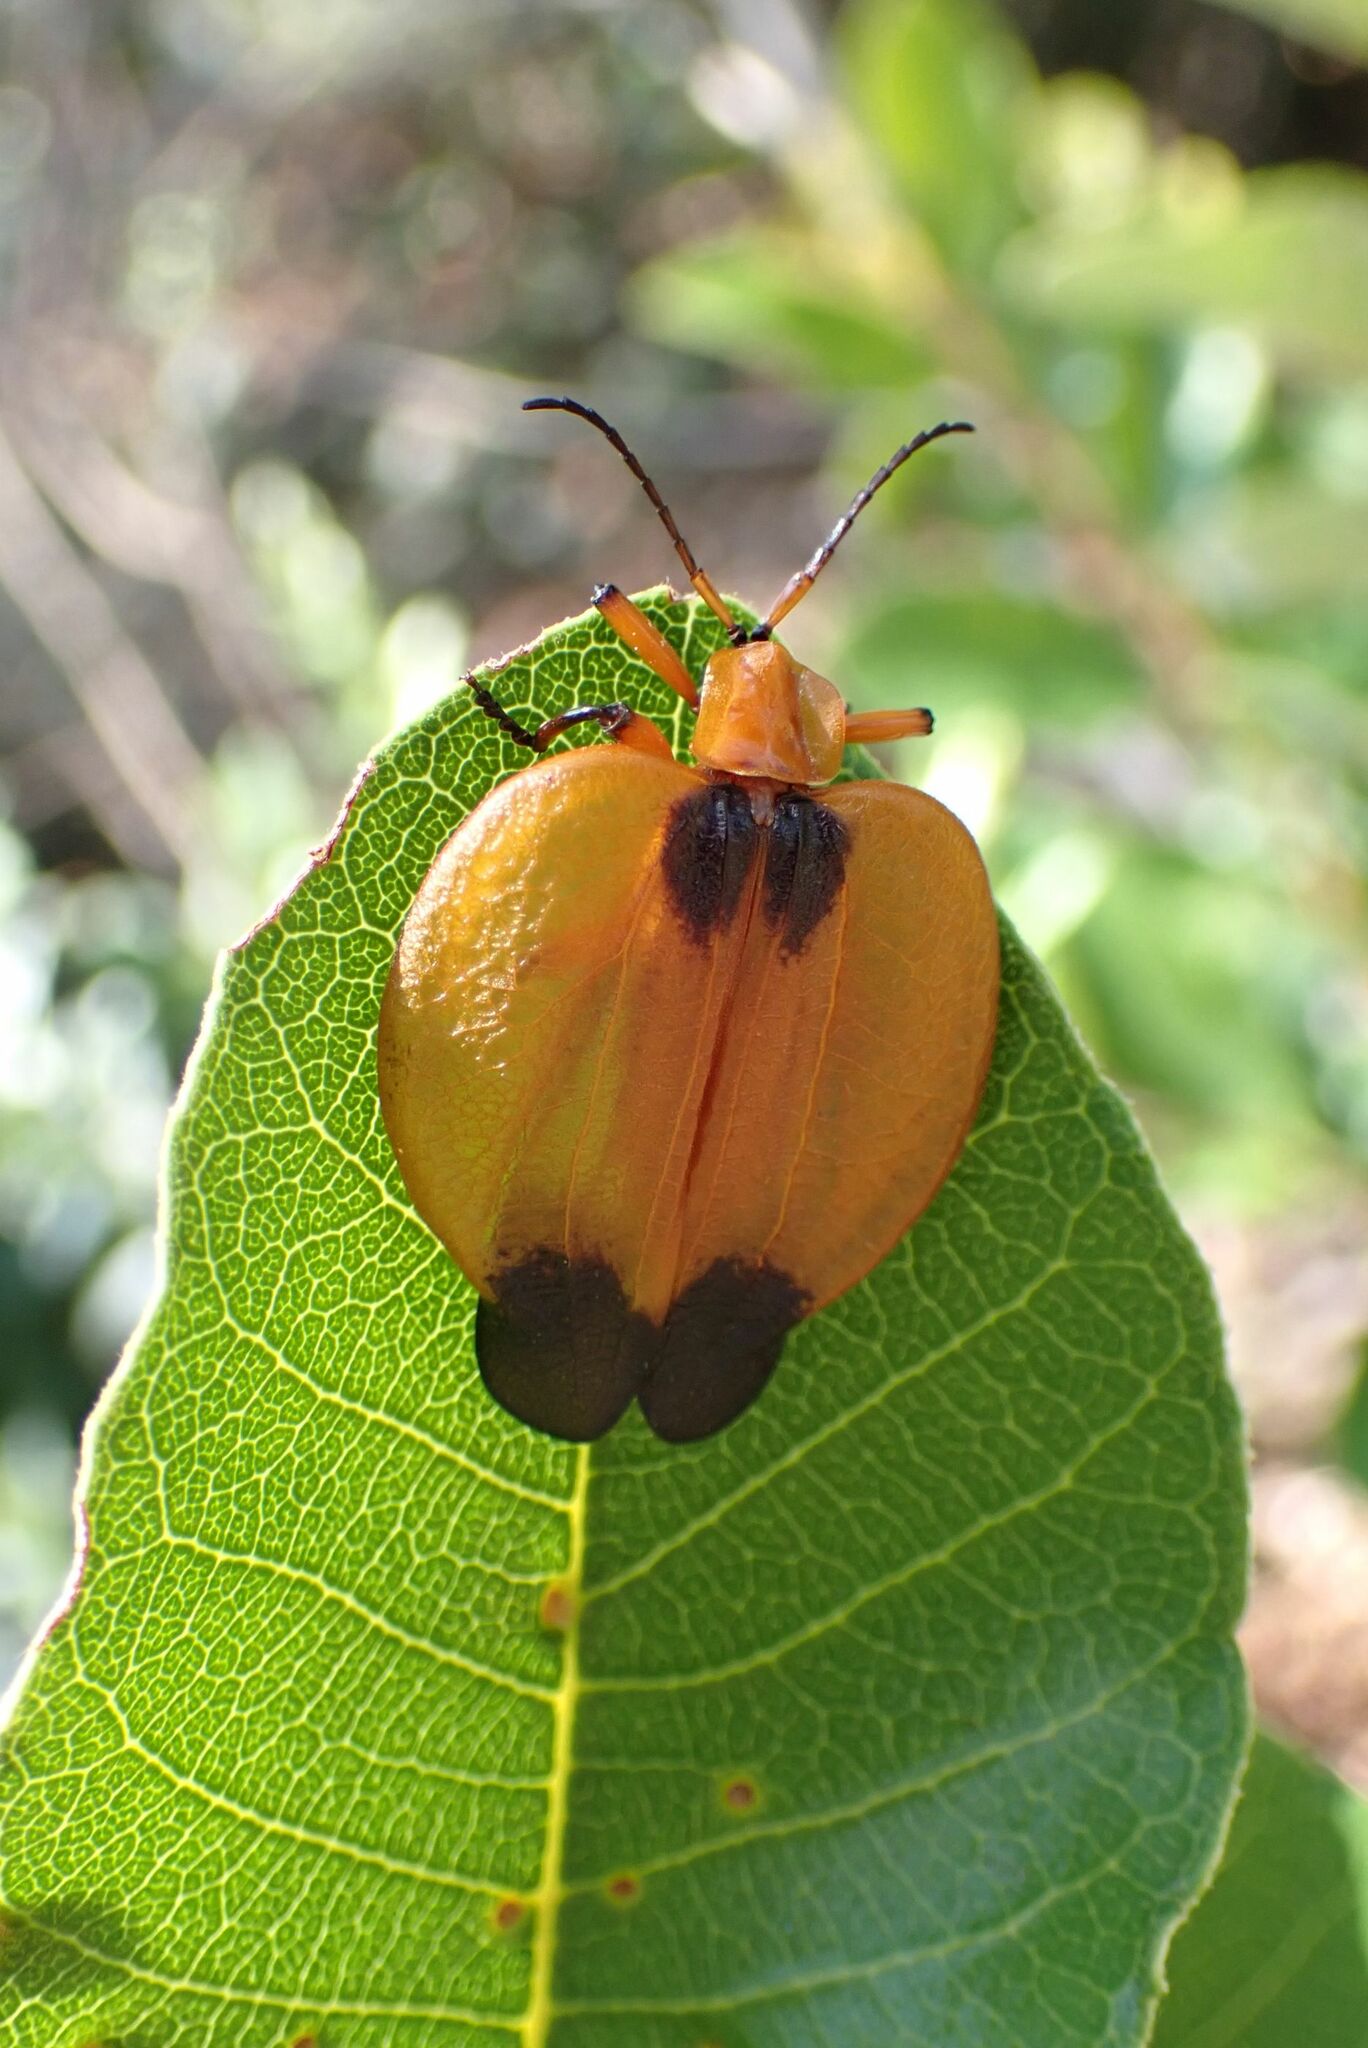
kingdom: Animalia
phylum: Arthropoda
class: Insecta
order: Coleoptera
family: Lycidae
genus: Lycus
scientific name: Lycus
